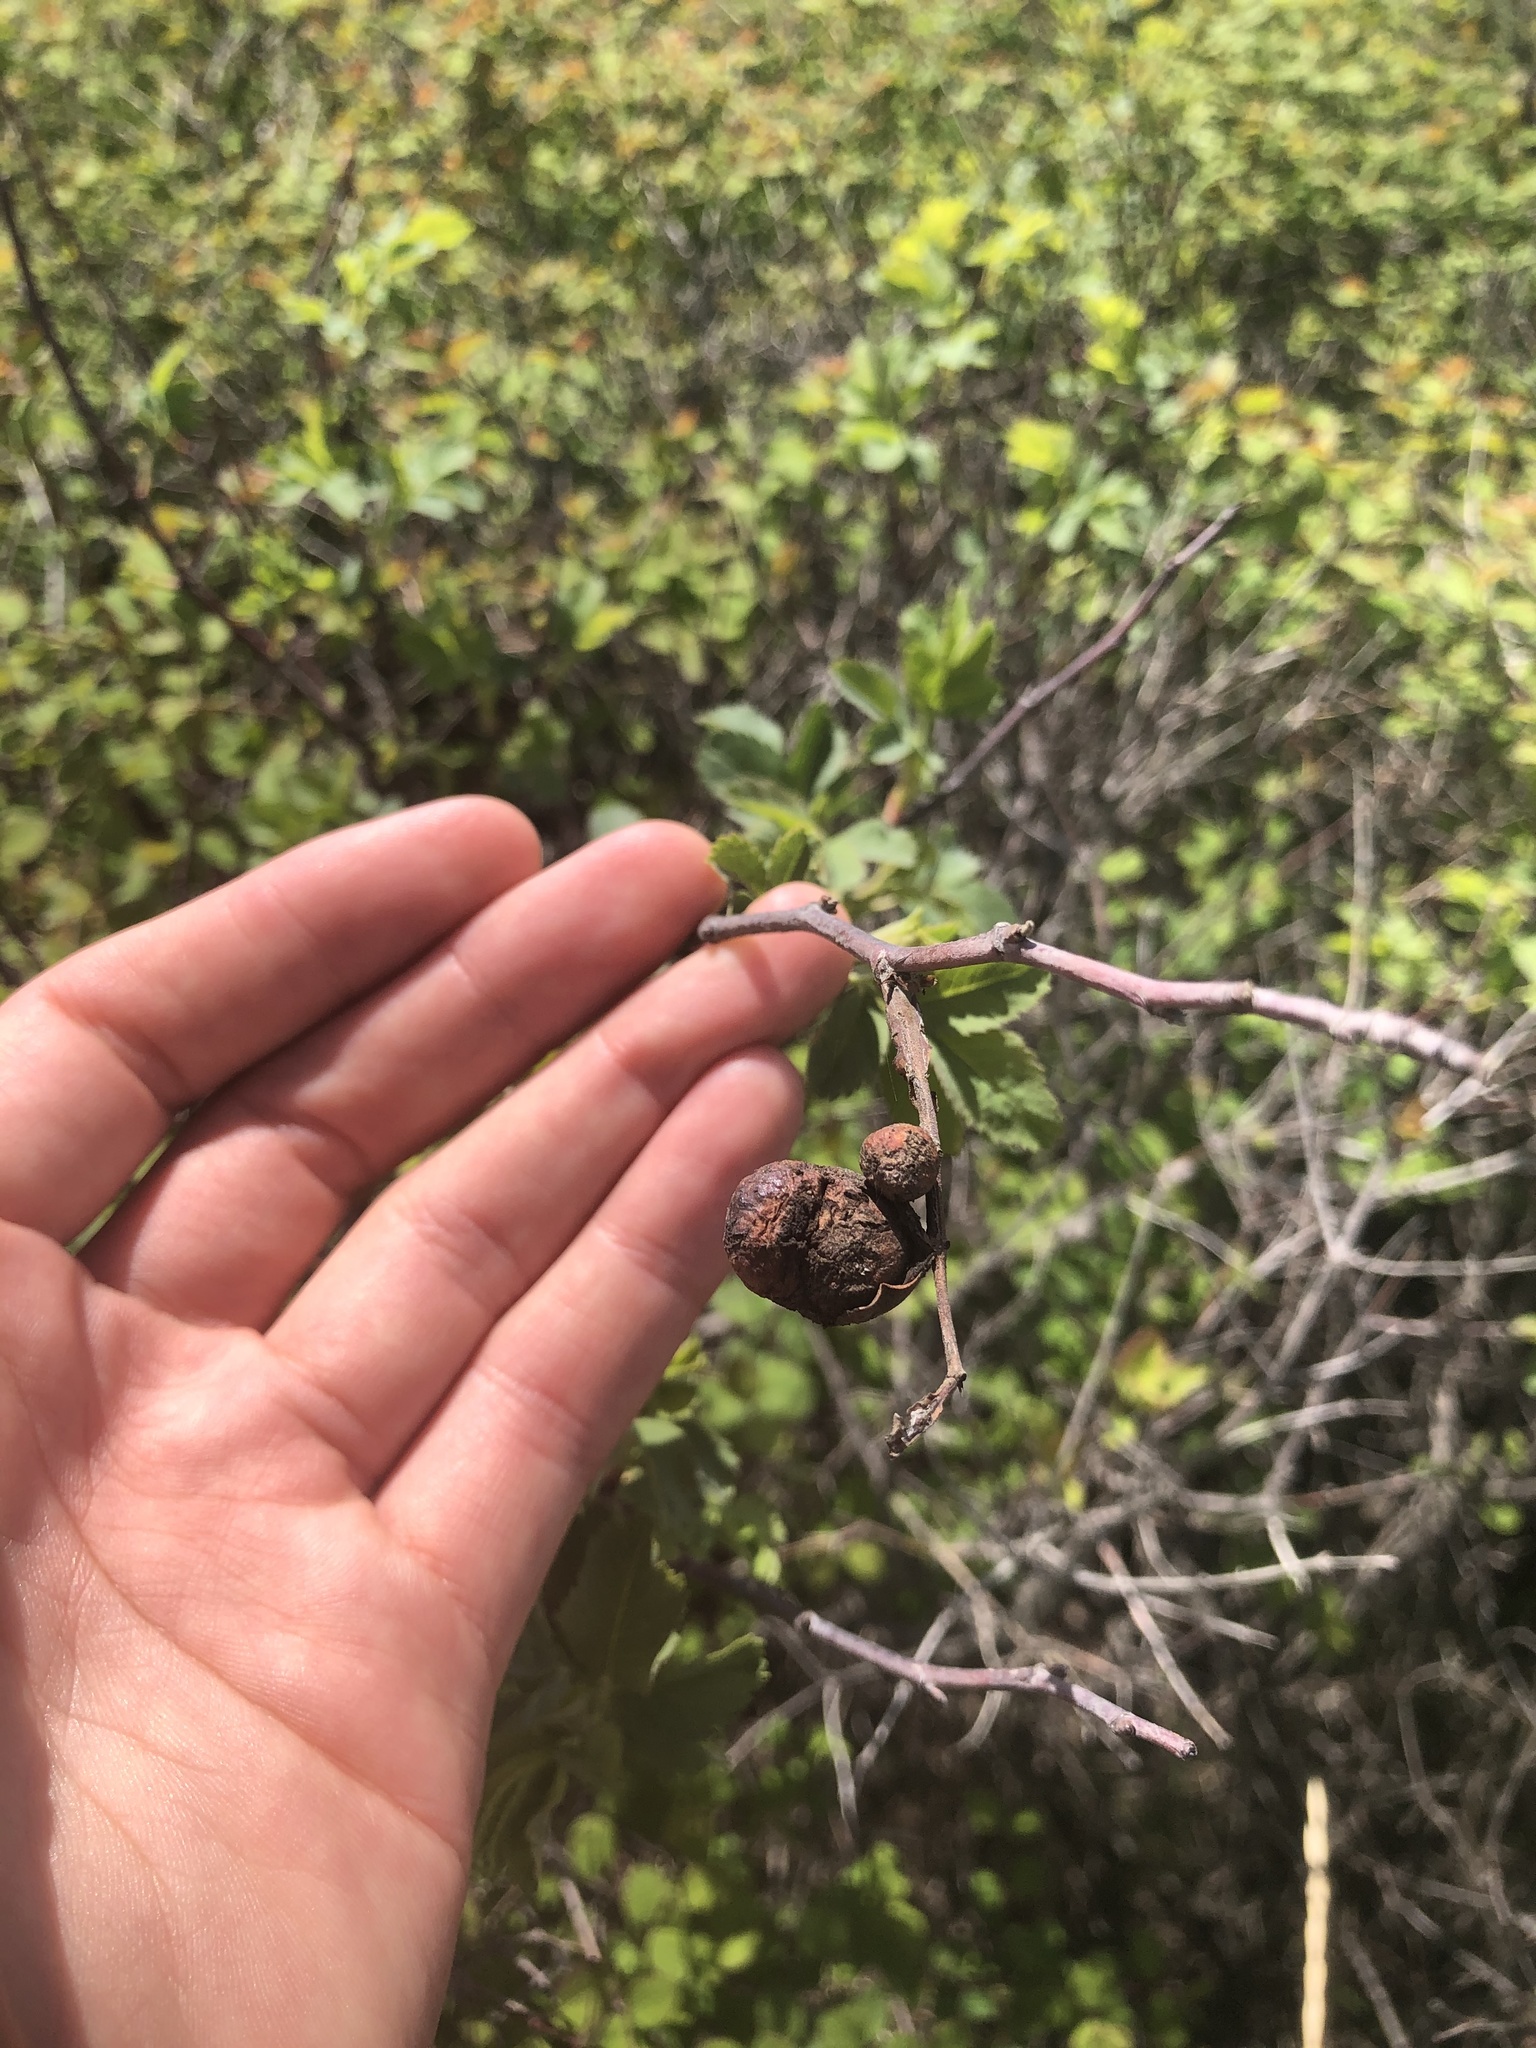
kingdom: Animalia
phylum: Arthropoda
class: Insecta
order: Hymenoptera
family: Cynipidae
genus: Diplolepis
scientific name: Diplolepis variabilis
